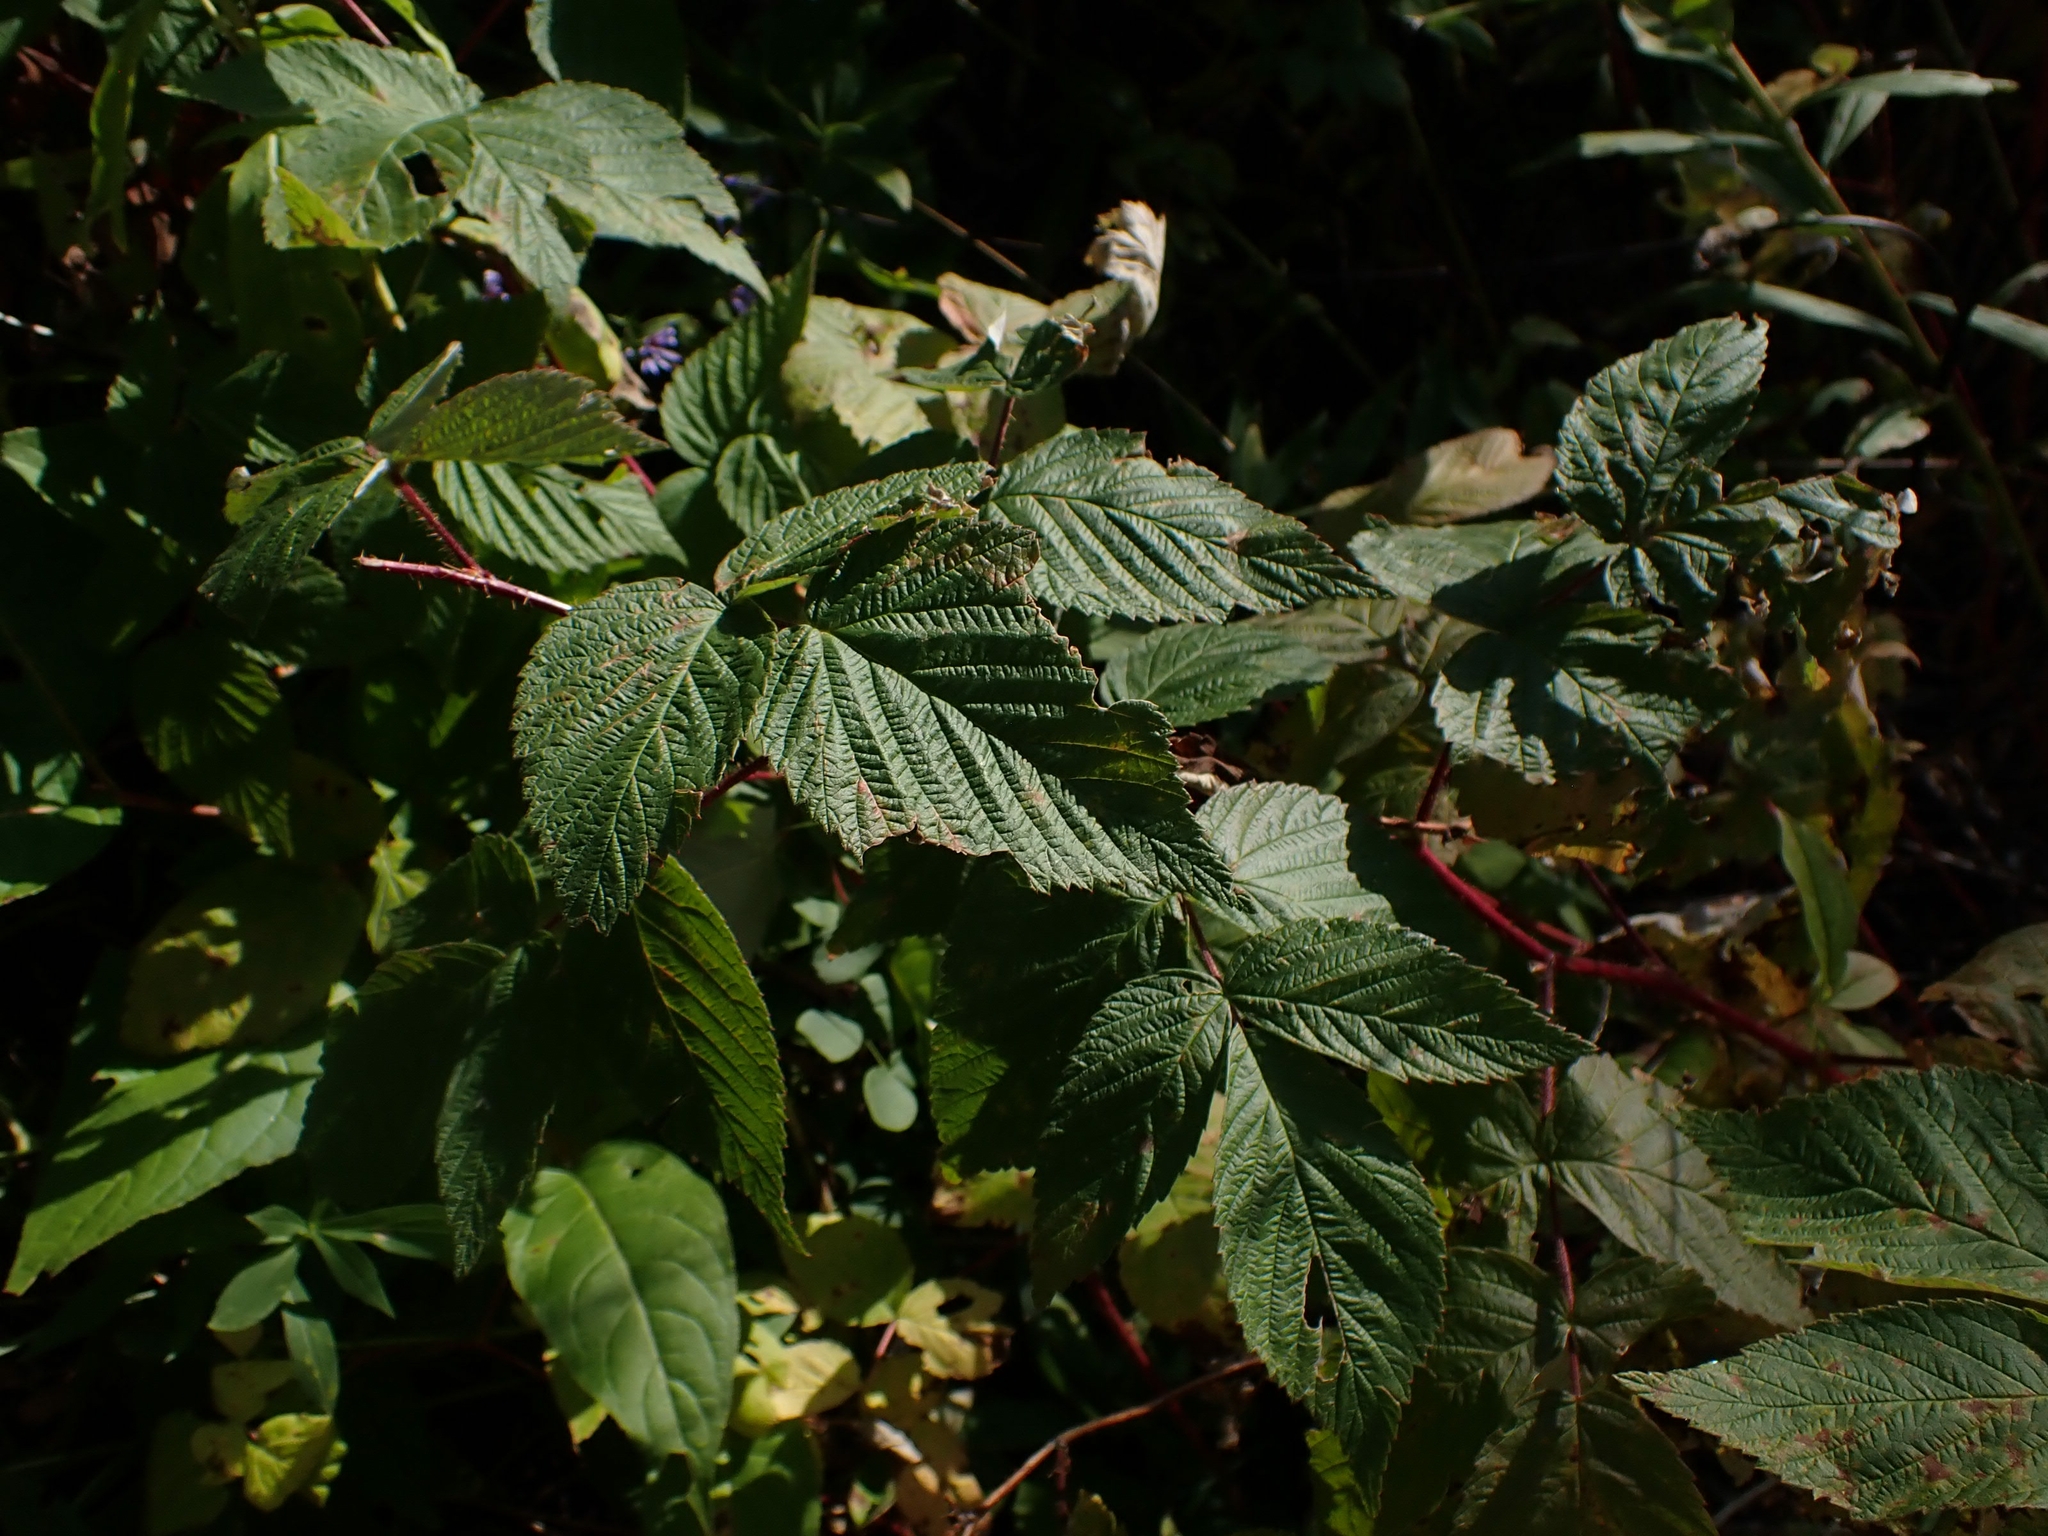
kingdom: Plantae
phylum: Tracheophyta
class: Magnoliopsida
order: Rosales
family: Rosaceae
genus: Rubus
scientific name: Rubus idaeus
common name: Raspberry
